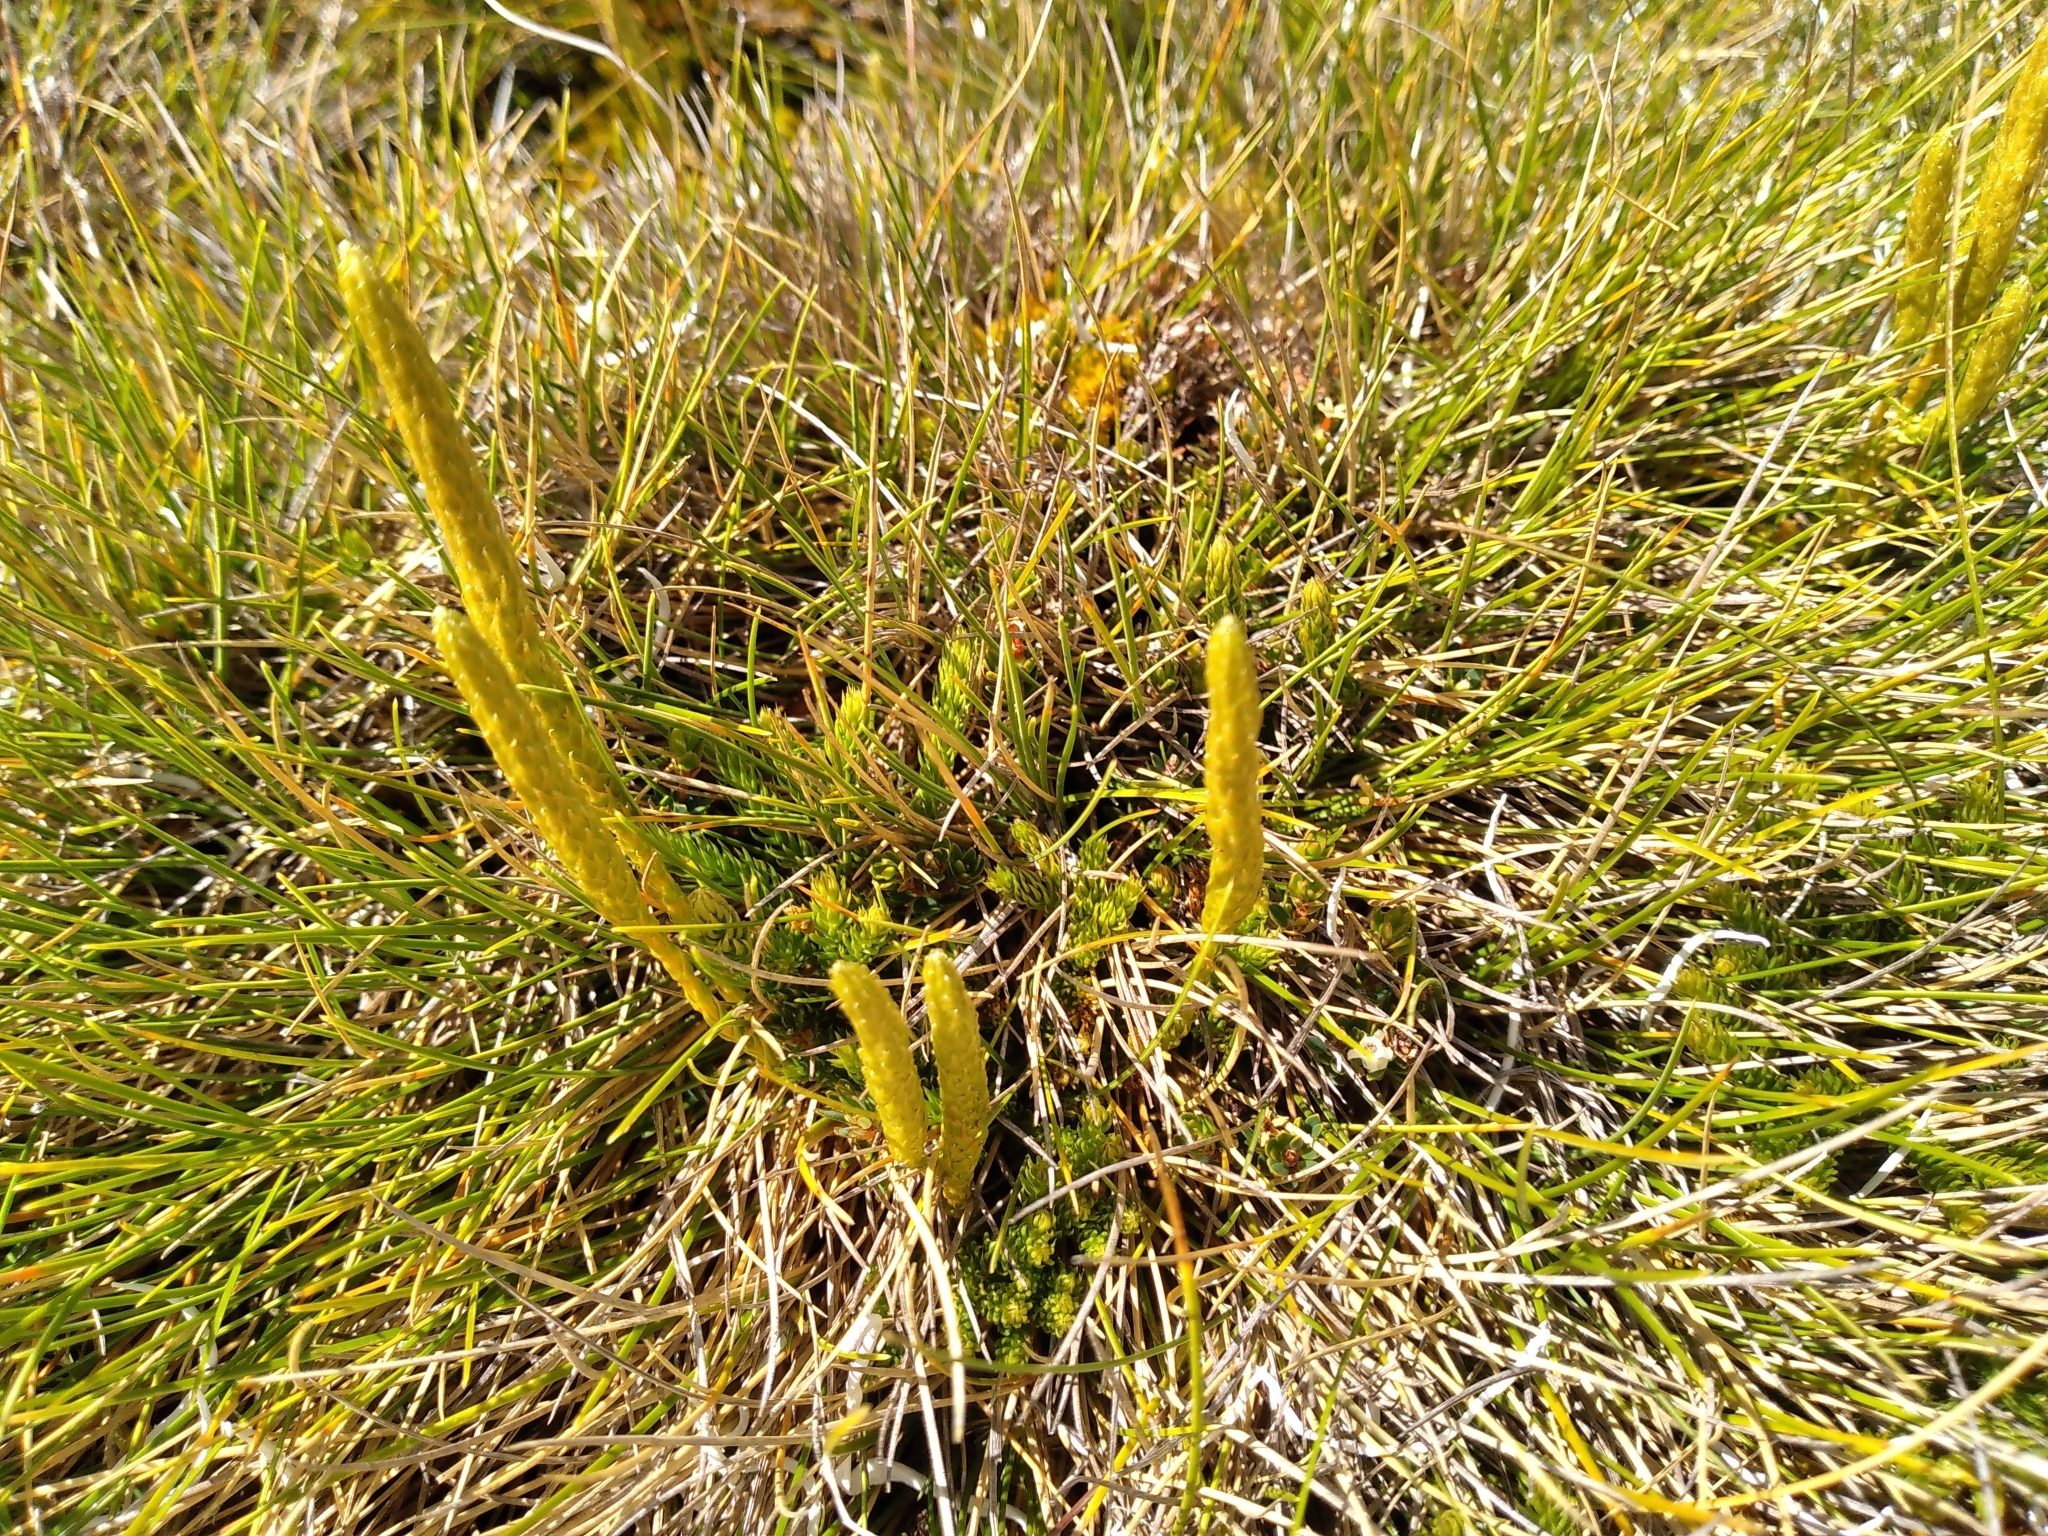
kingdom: Plantae
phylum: Tracheophyta
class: Lycopodiopsida
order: Lycopodiales
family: Lycopodiaceae
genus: Austrolycopodium
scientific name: Austrolycopodium fastigiatum
